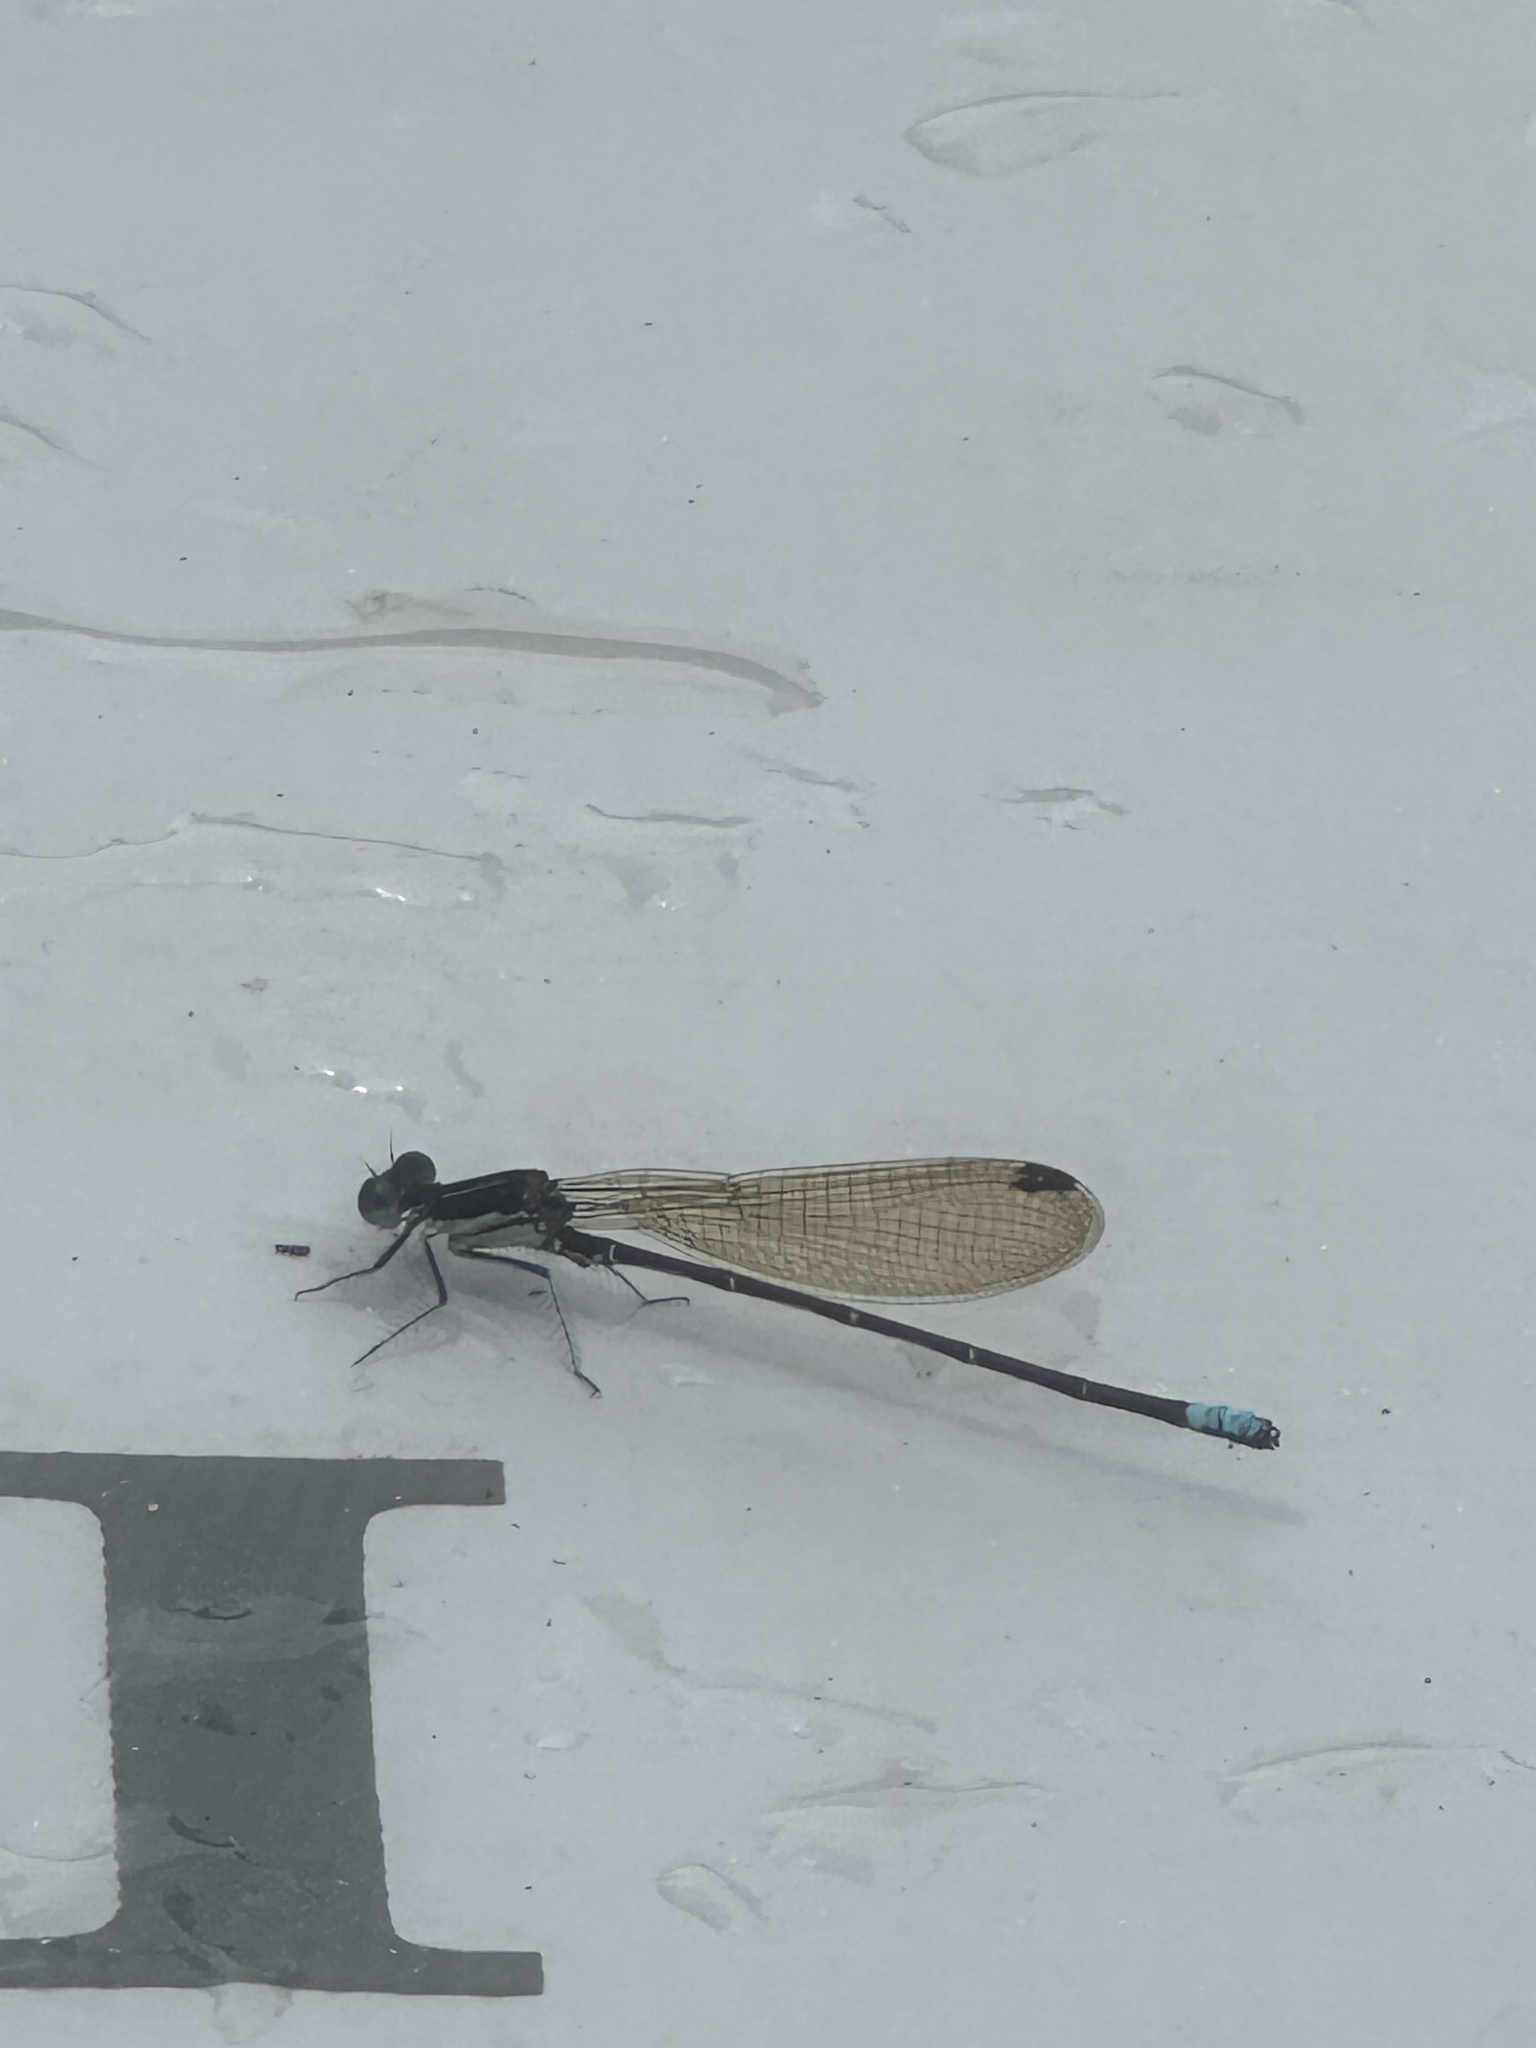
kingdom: Animalia
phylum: Arthropoda
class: Insecta
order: Odonata
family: Coenagrionidae
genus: Argia
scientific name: Argia sedula
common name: Blue-ringed dancer
